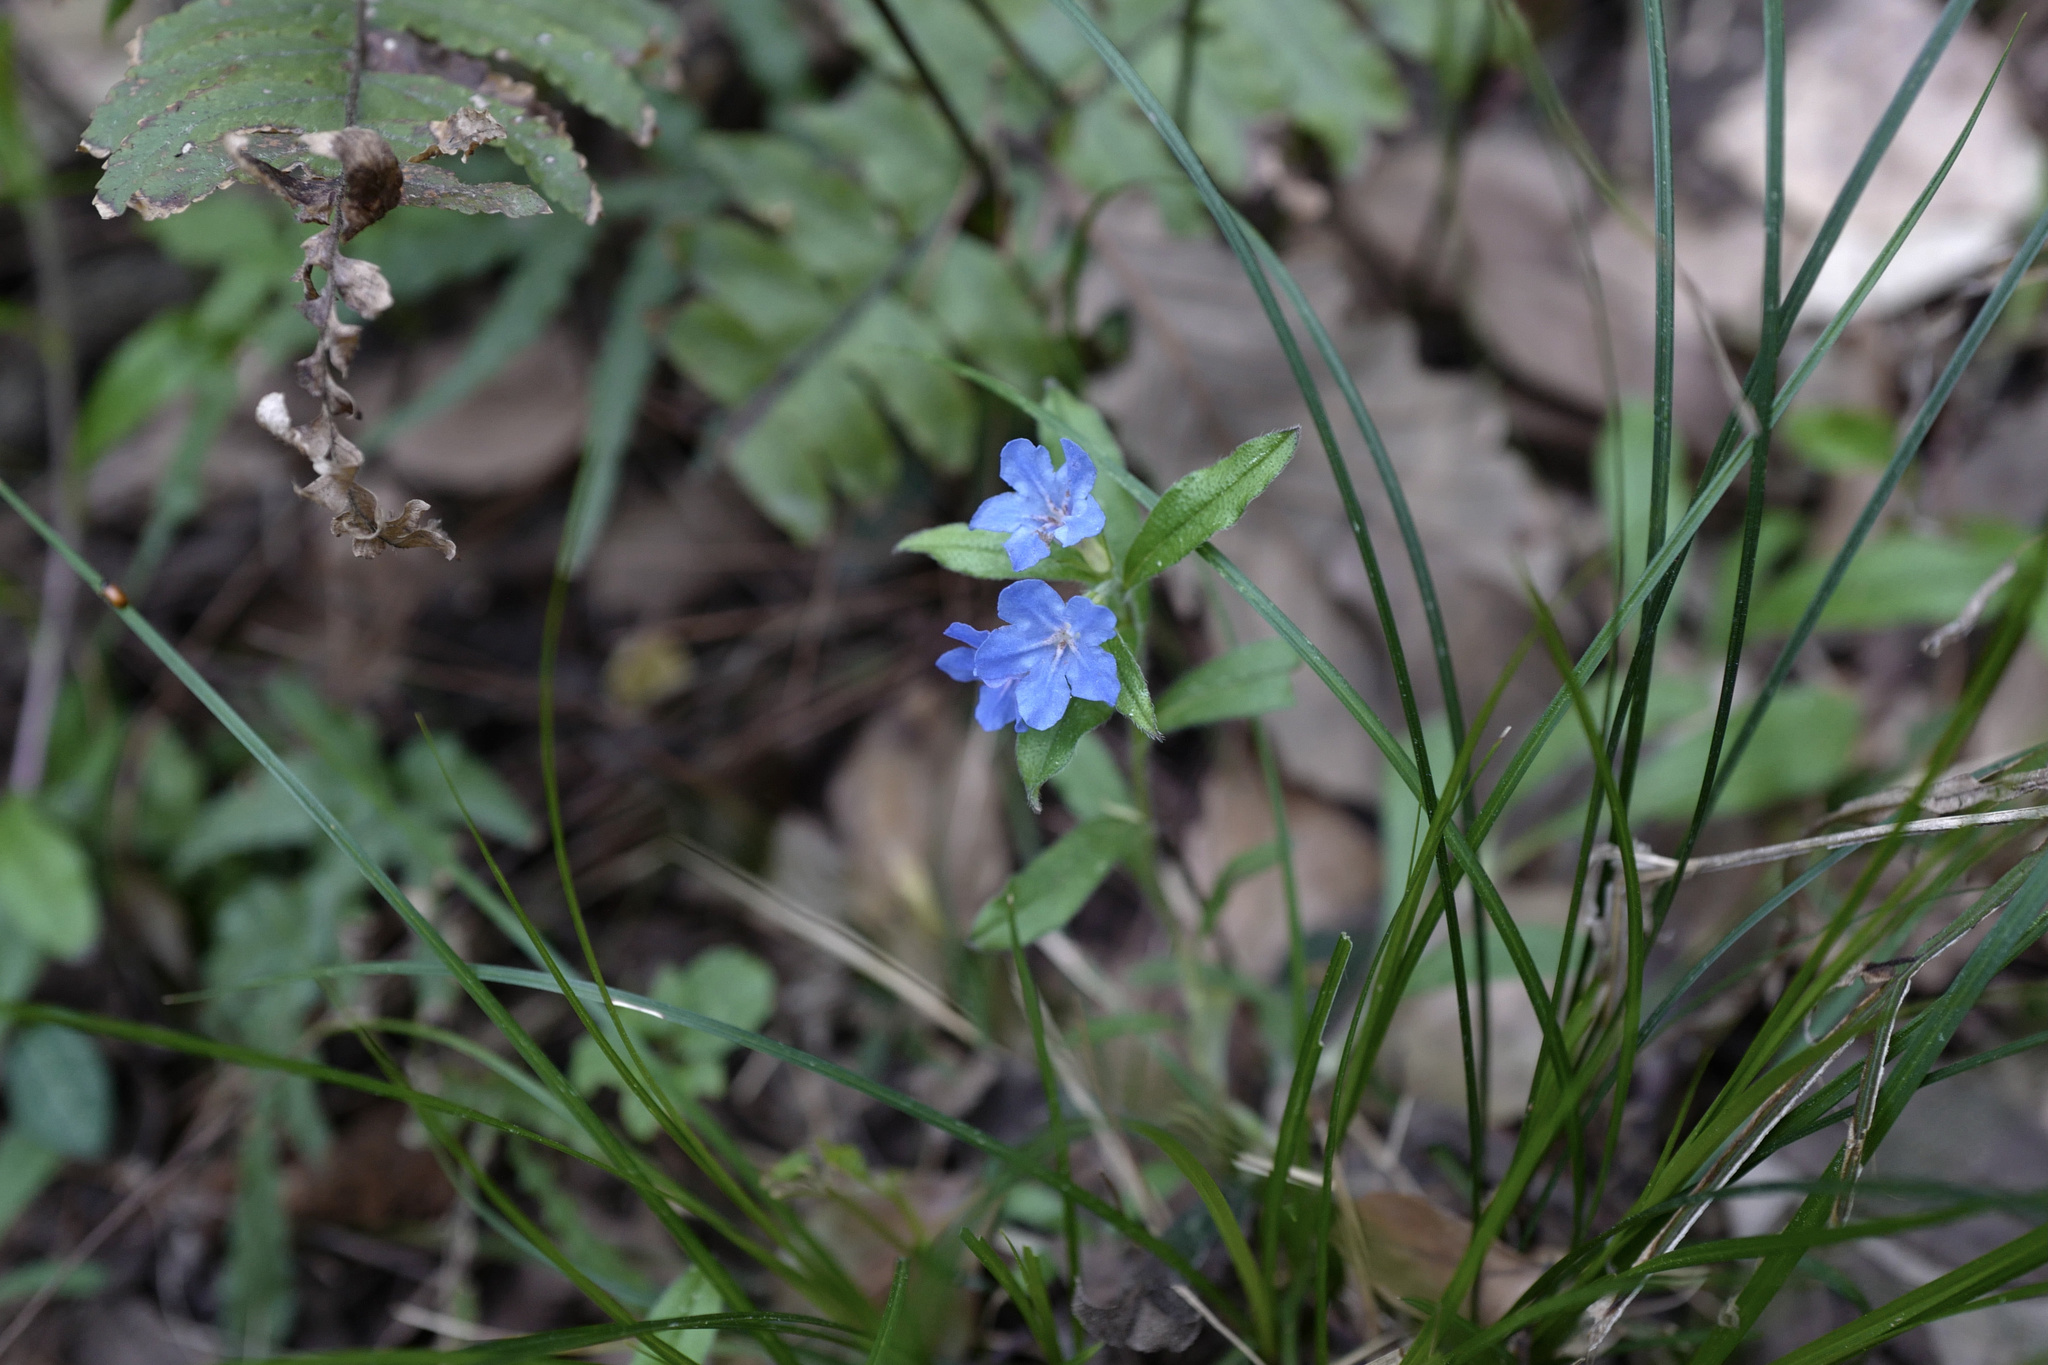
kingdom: Plantae
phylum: Tracheophyta
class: Magnoliopsida
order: Boraginales
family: Boraginaceae
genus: Aegonychon
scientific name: Aegonychon zollingeri
